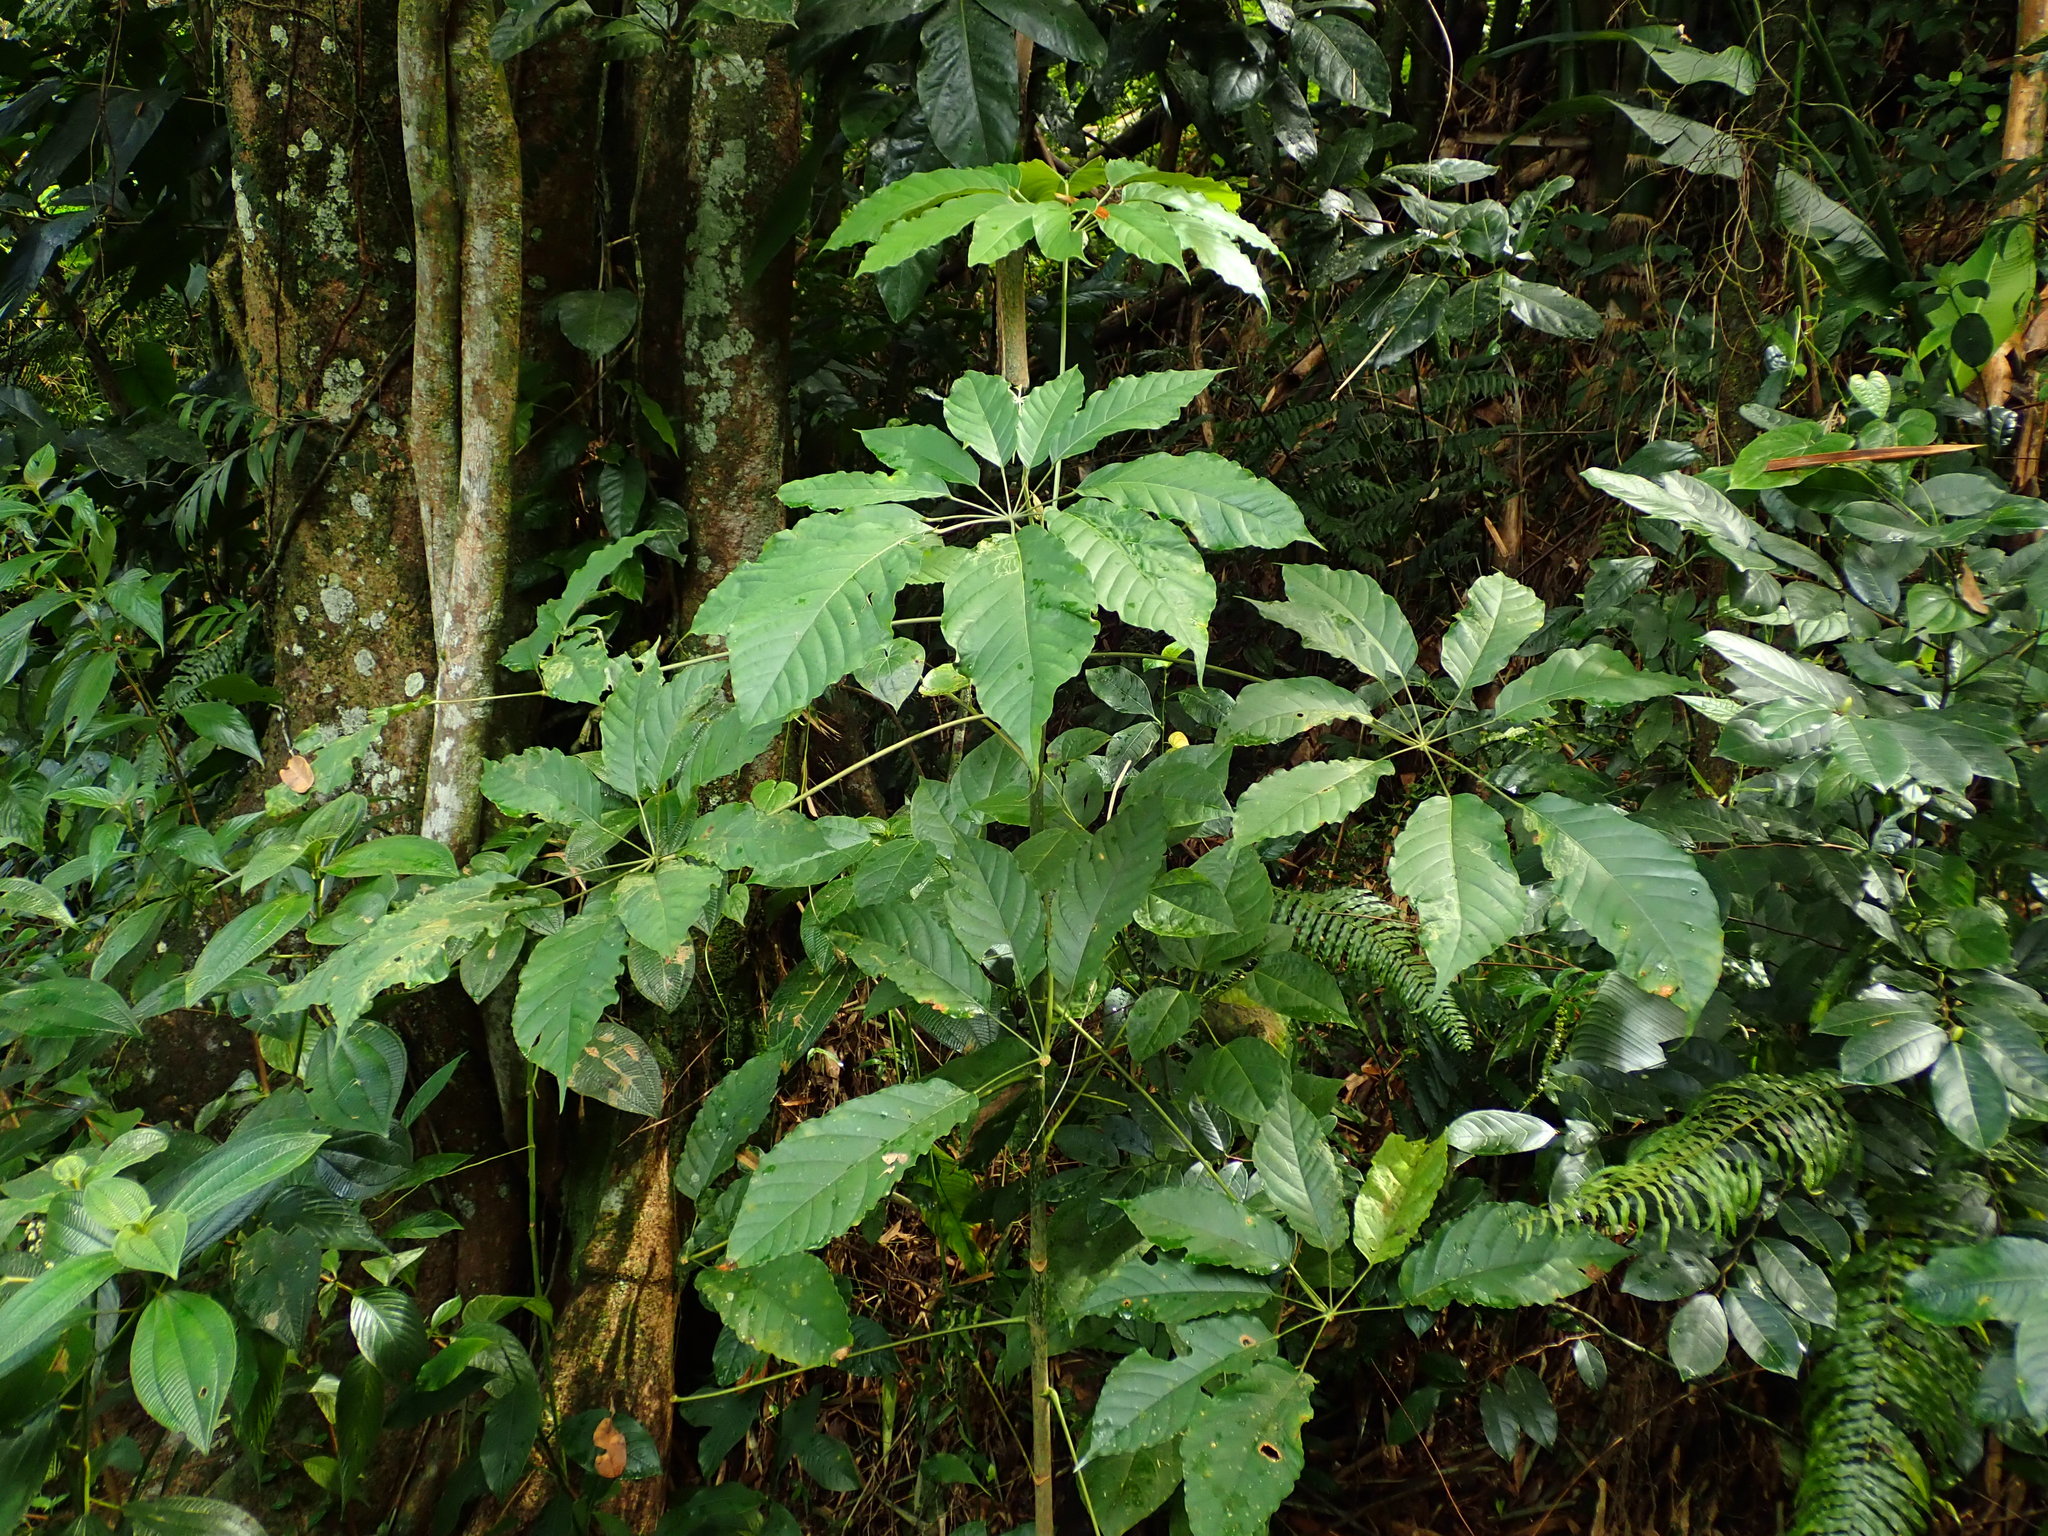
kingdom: Plantae
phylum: Tracheophyta
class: Magnoliopsida
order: Apiales
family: Araliaceae
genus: Didymopanax
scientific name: Didymopanax morototoni
